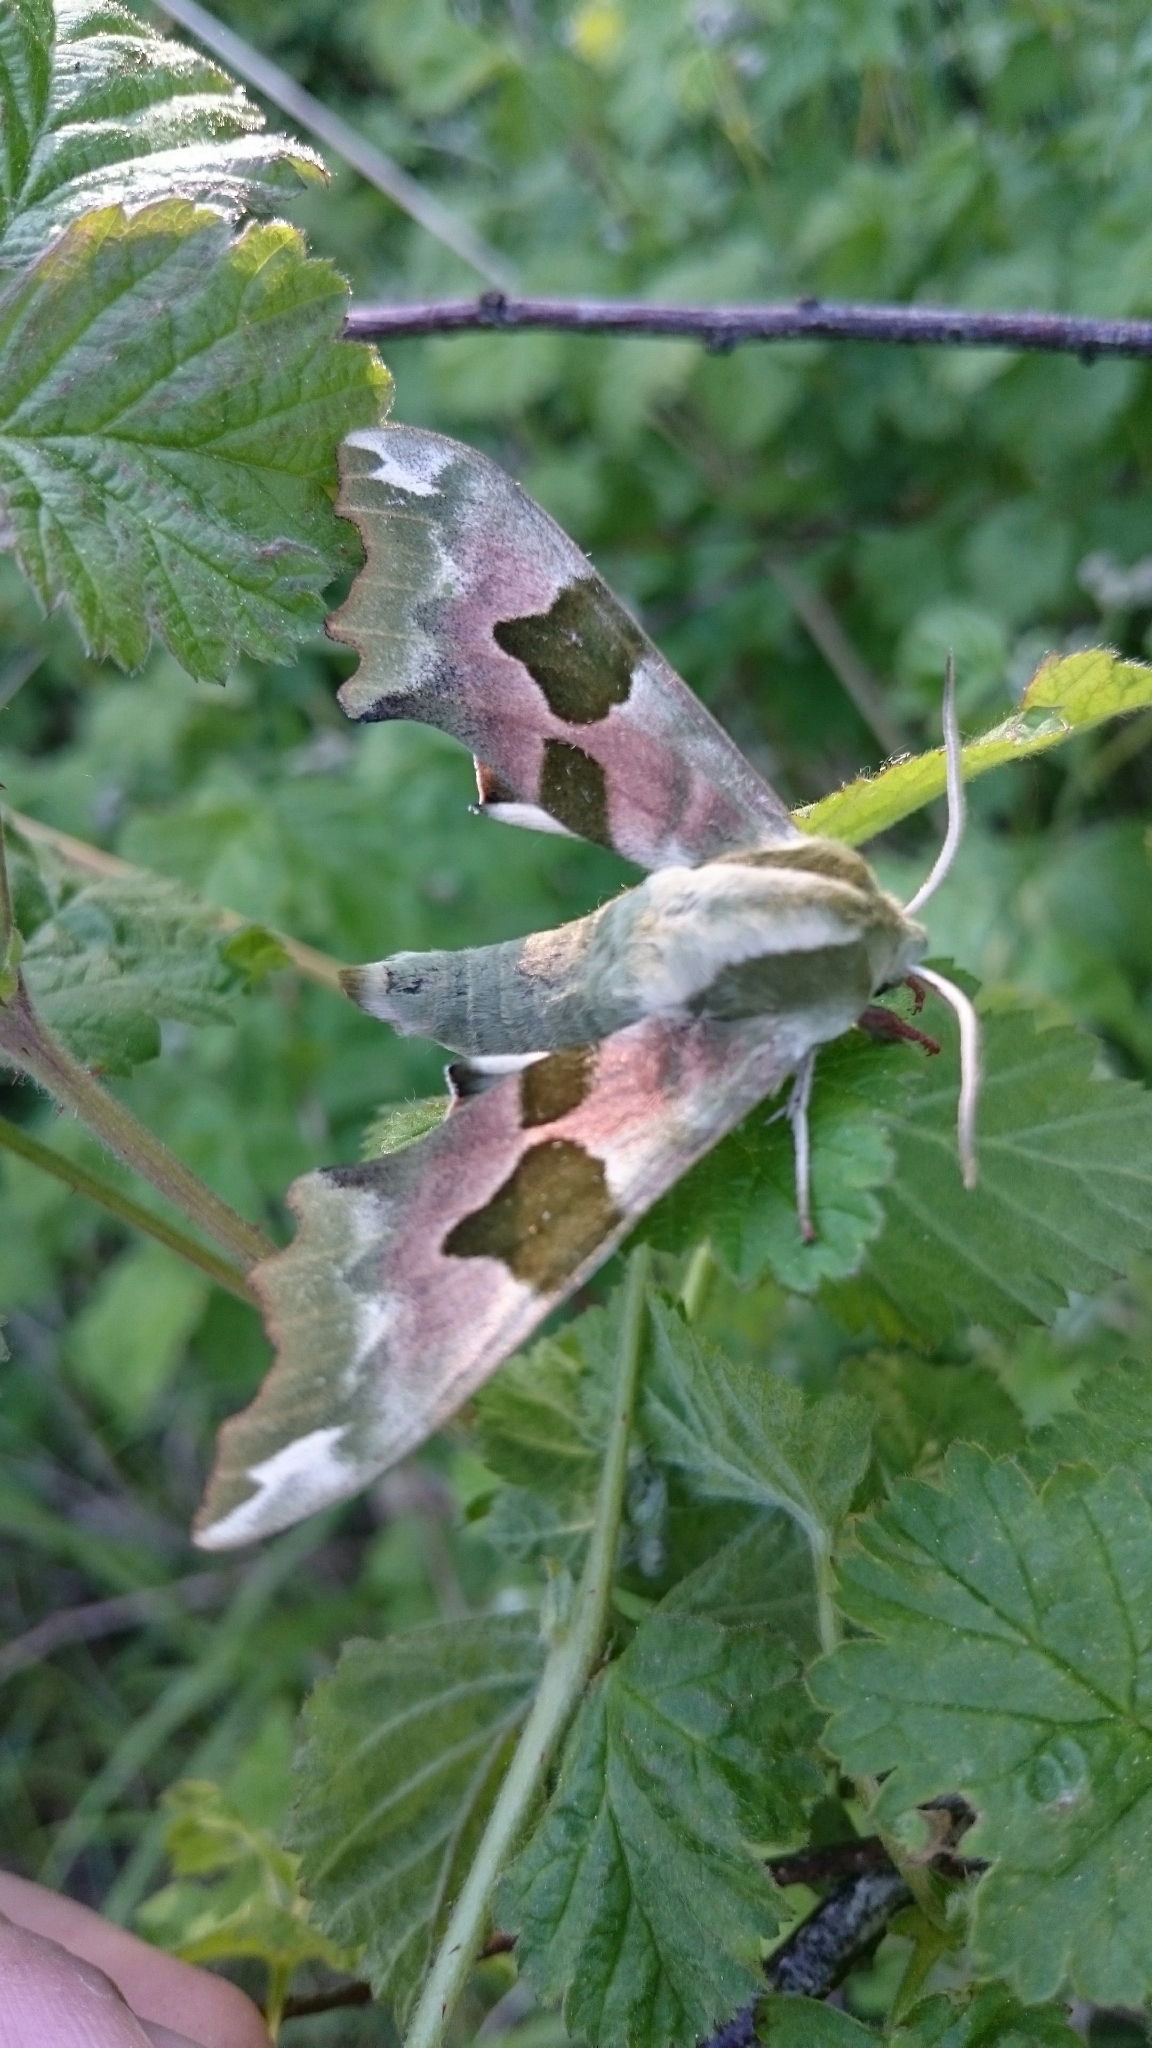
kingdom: Animalia
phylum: Arthropoda
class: Insecta
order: Lepidoptera
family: Sphingidae
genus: Mimas
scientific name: Mimas tiliae
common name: Lime hawk-moth
